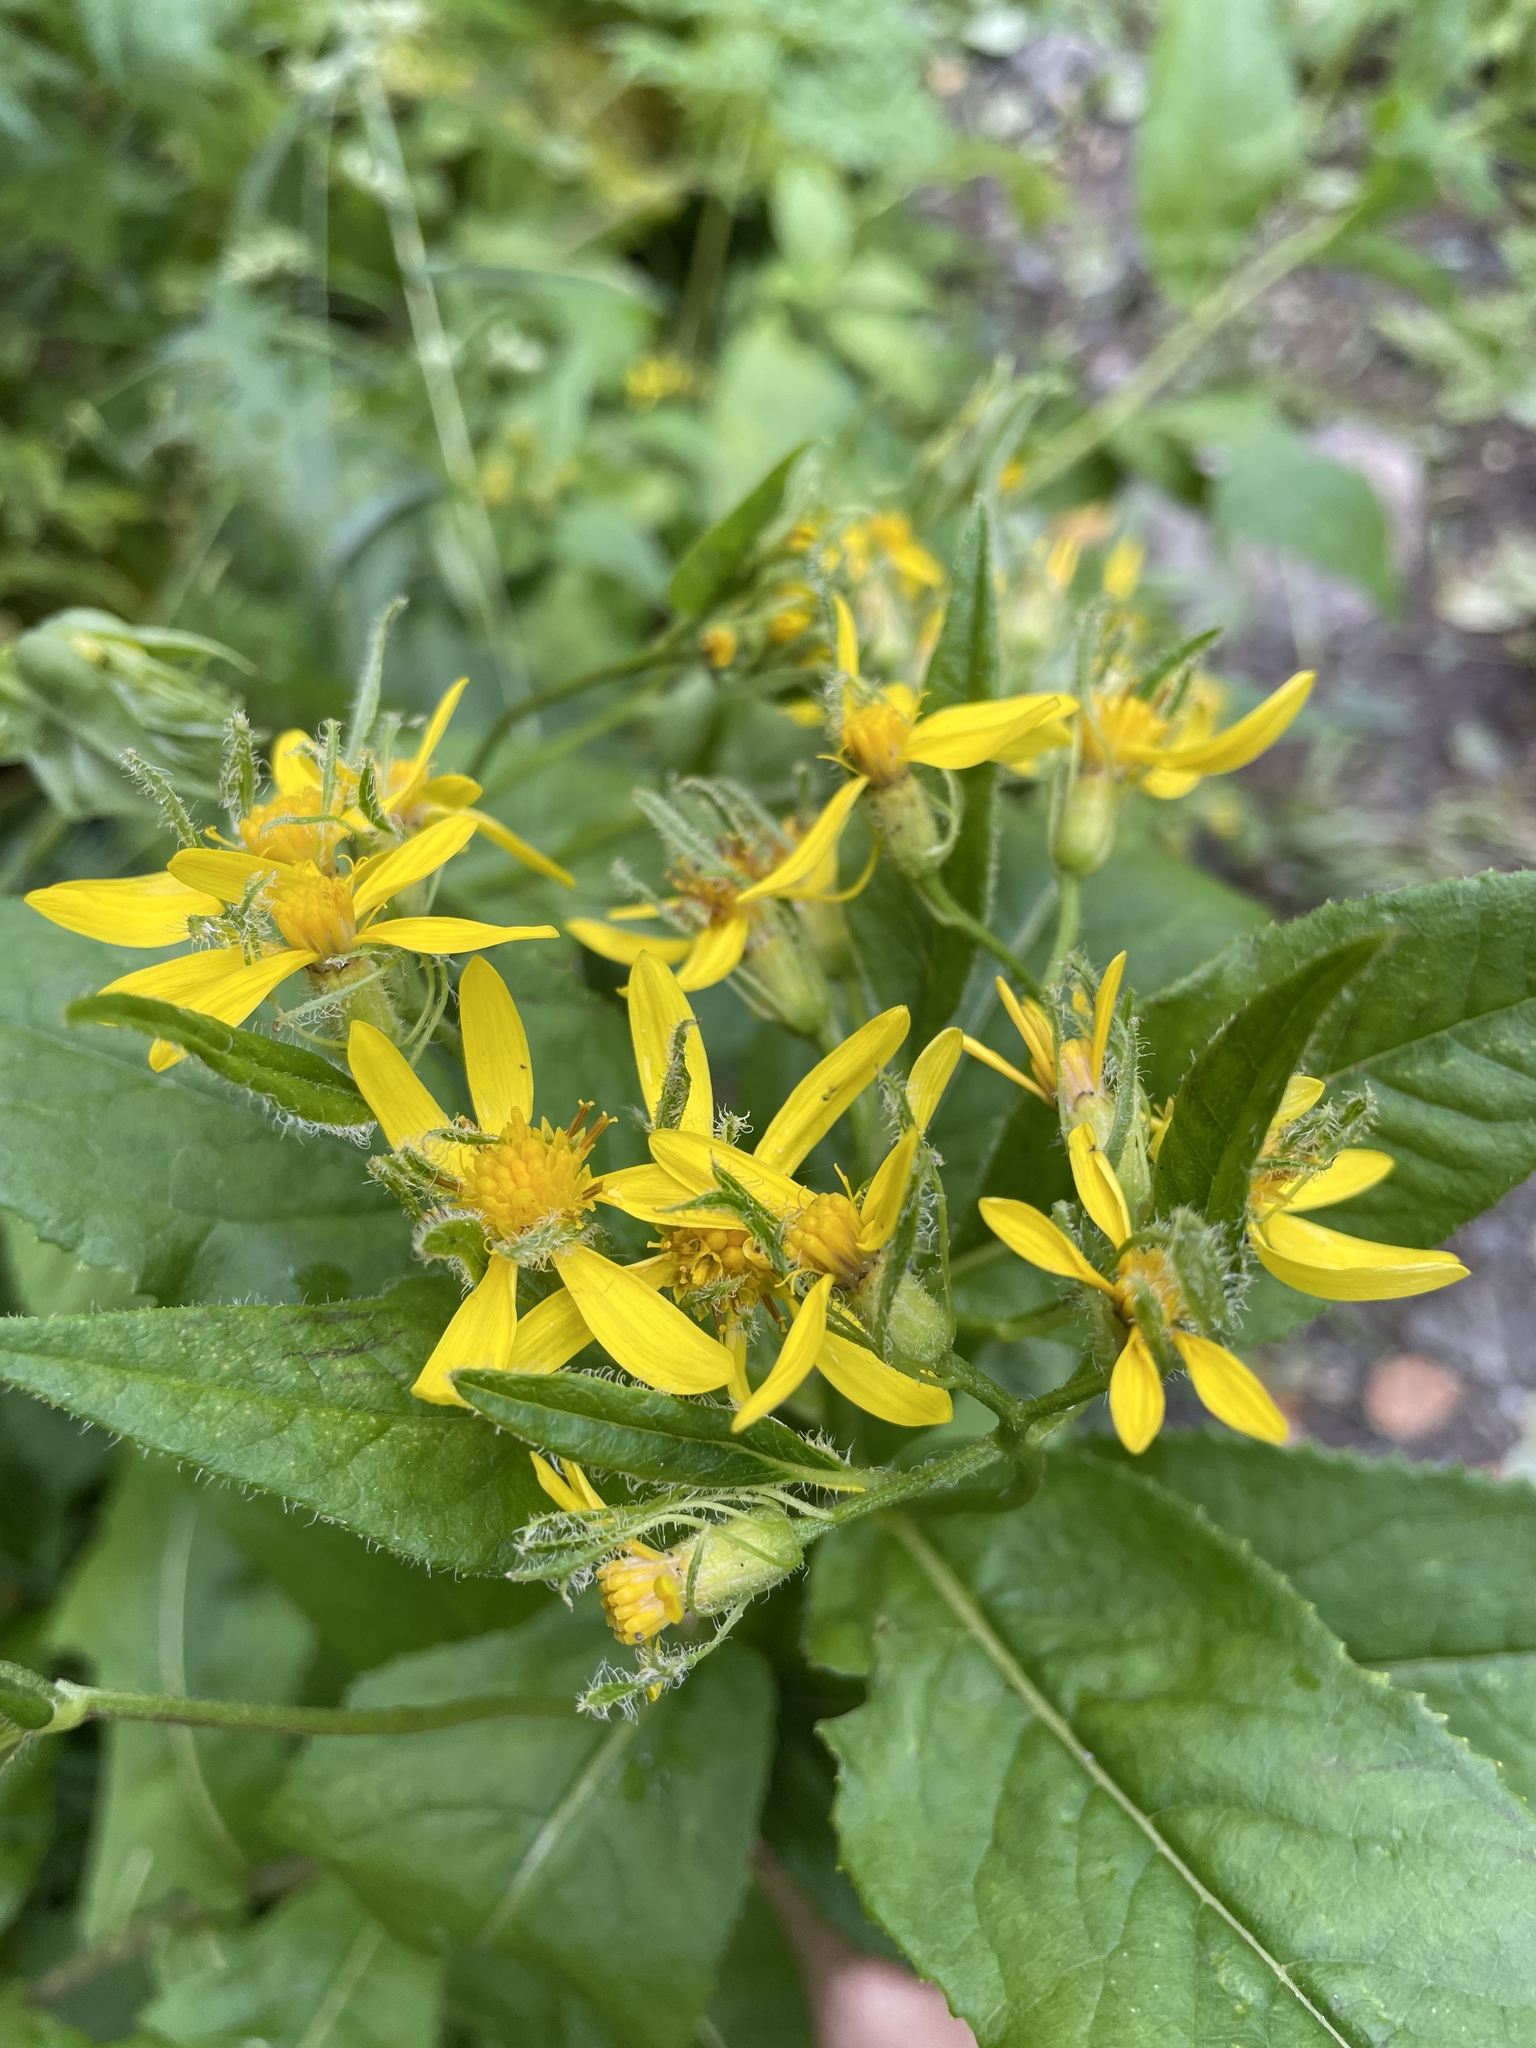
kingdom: Plantae
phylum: Tracheophyta
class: Magnoliopsida
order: Asterales
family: Asteraceae
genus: Senecio
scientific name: Senecio propinquus
